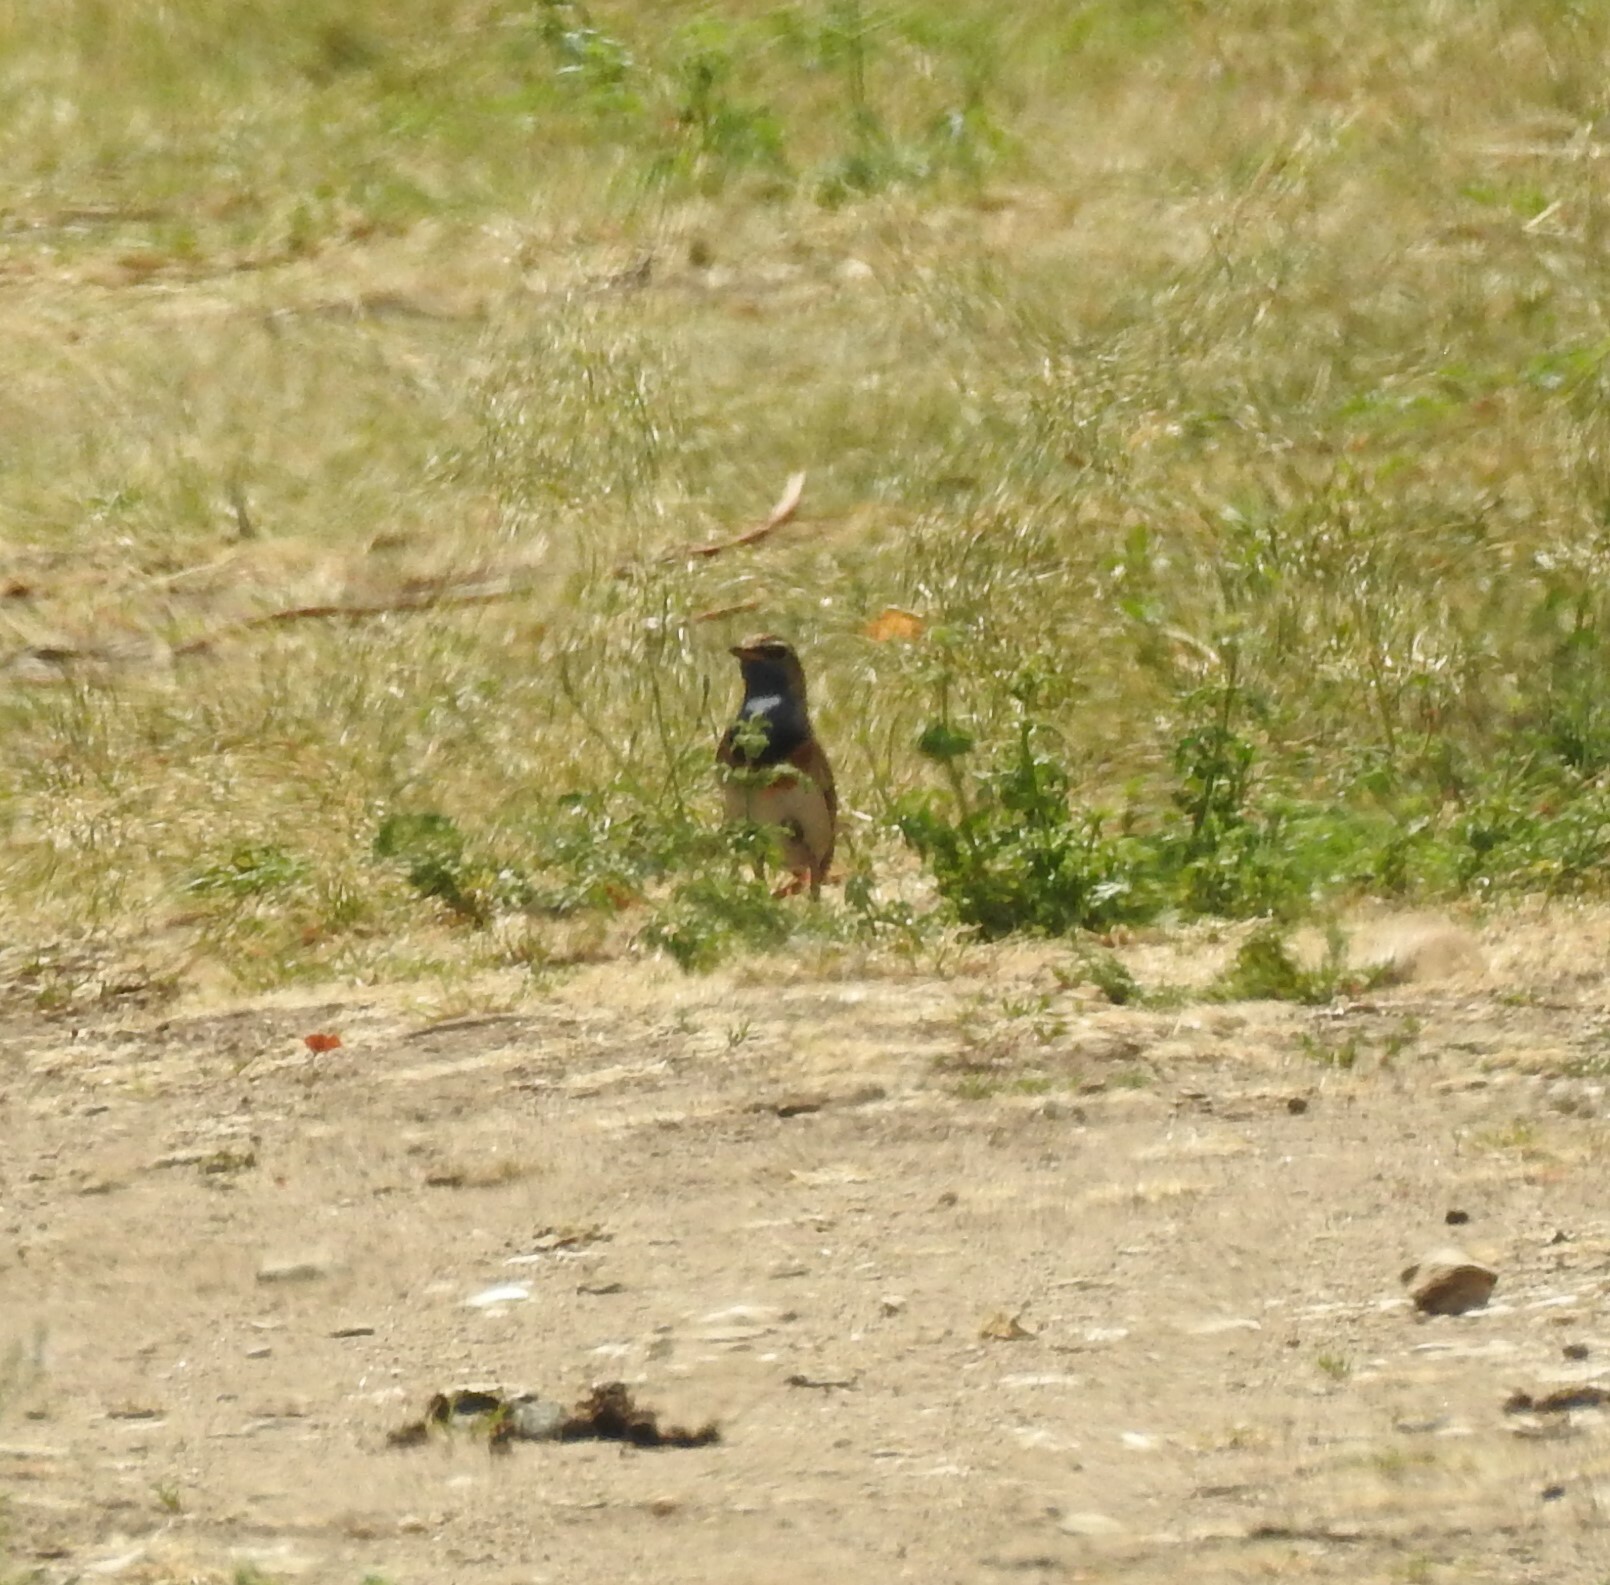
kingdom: Animalia
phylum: Chordata
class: Aves
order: Passeriformes
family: Muscicapidae
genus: Luscinia
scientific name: Luscinia svecica
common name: Bluethroat
